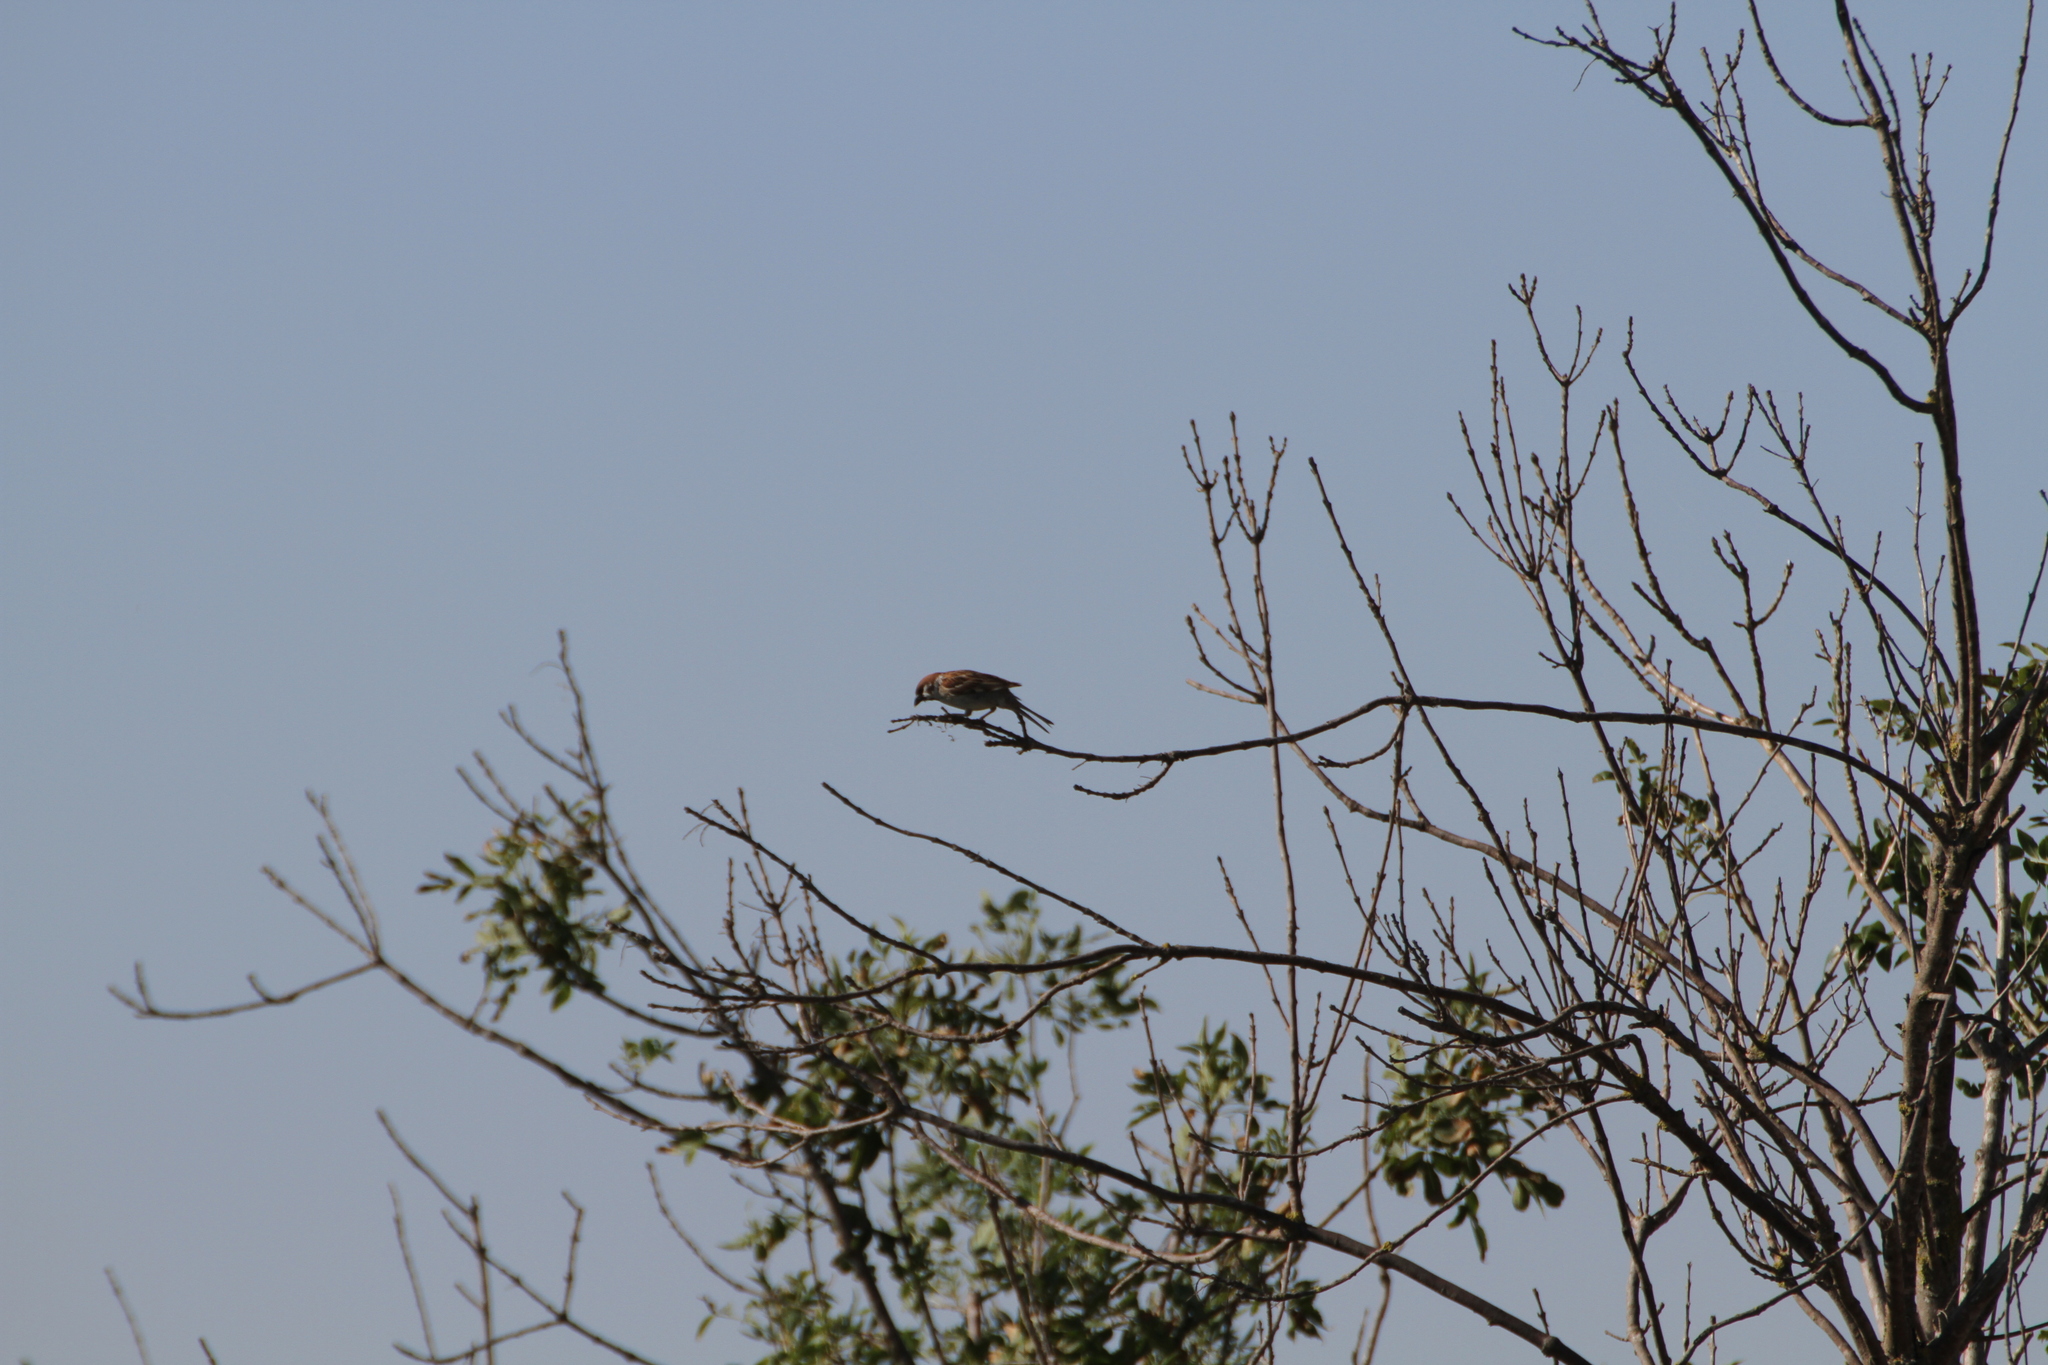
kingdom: Animalia
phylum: Chordata
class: Aves
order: Passeriformes
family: Passeridae
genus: Passer
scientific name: Passer montanus
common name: Eurasian tree sparrow
